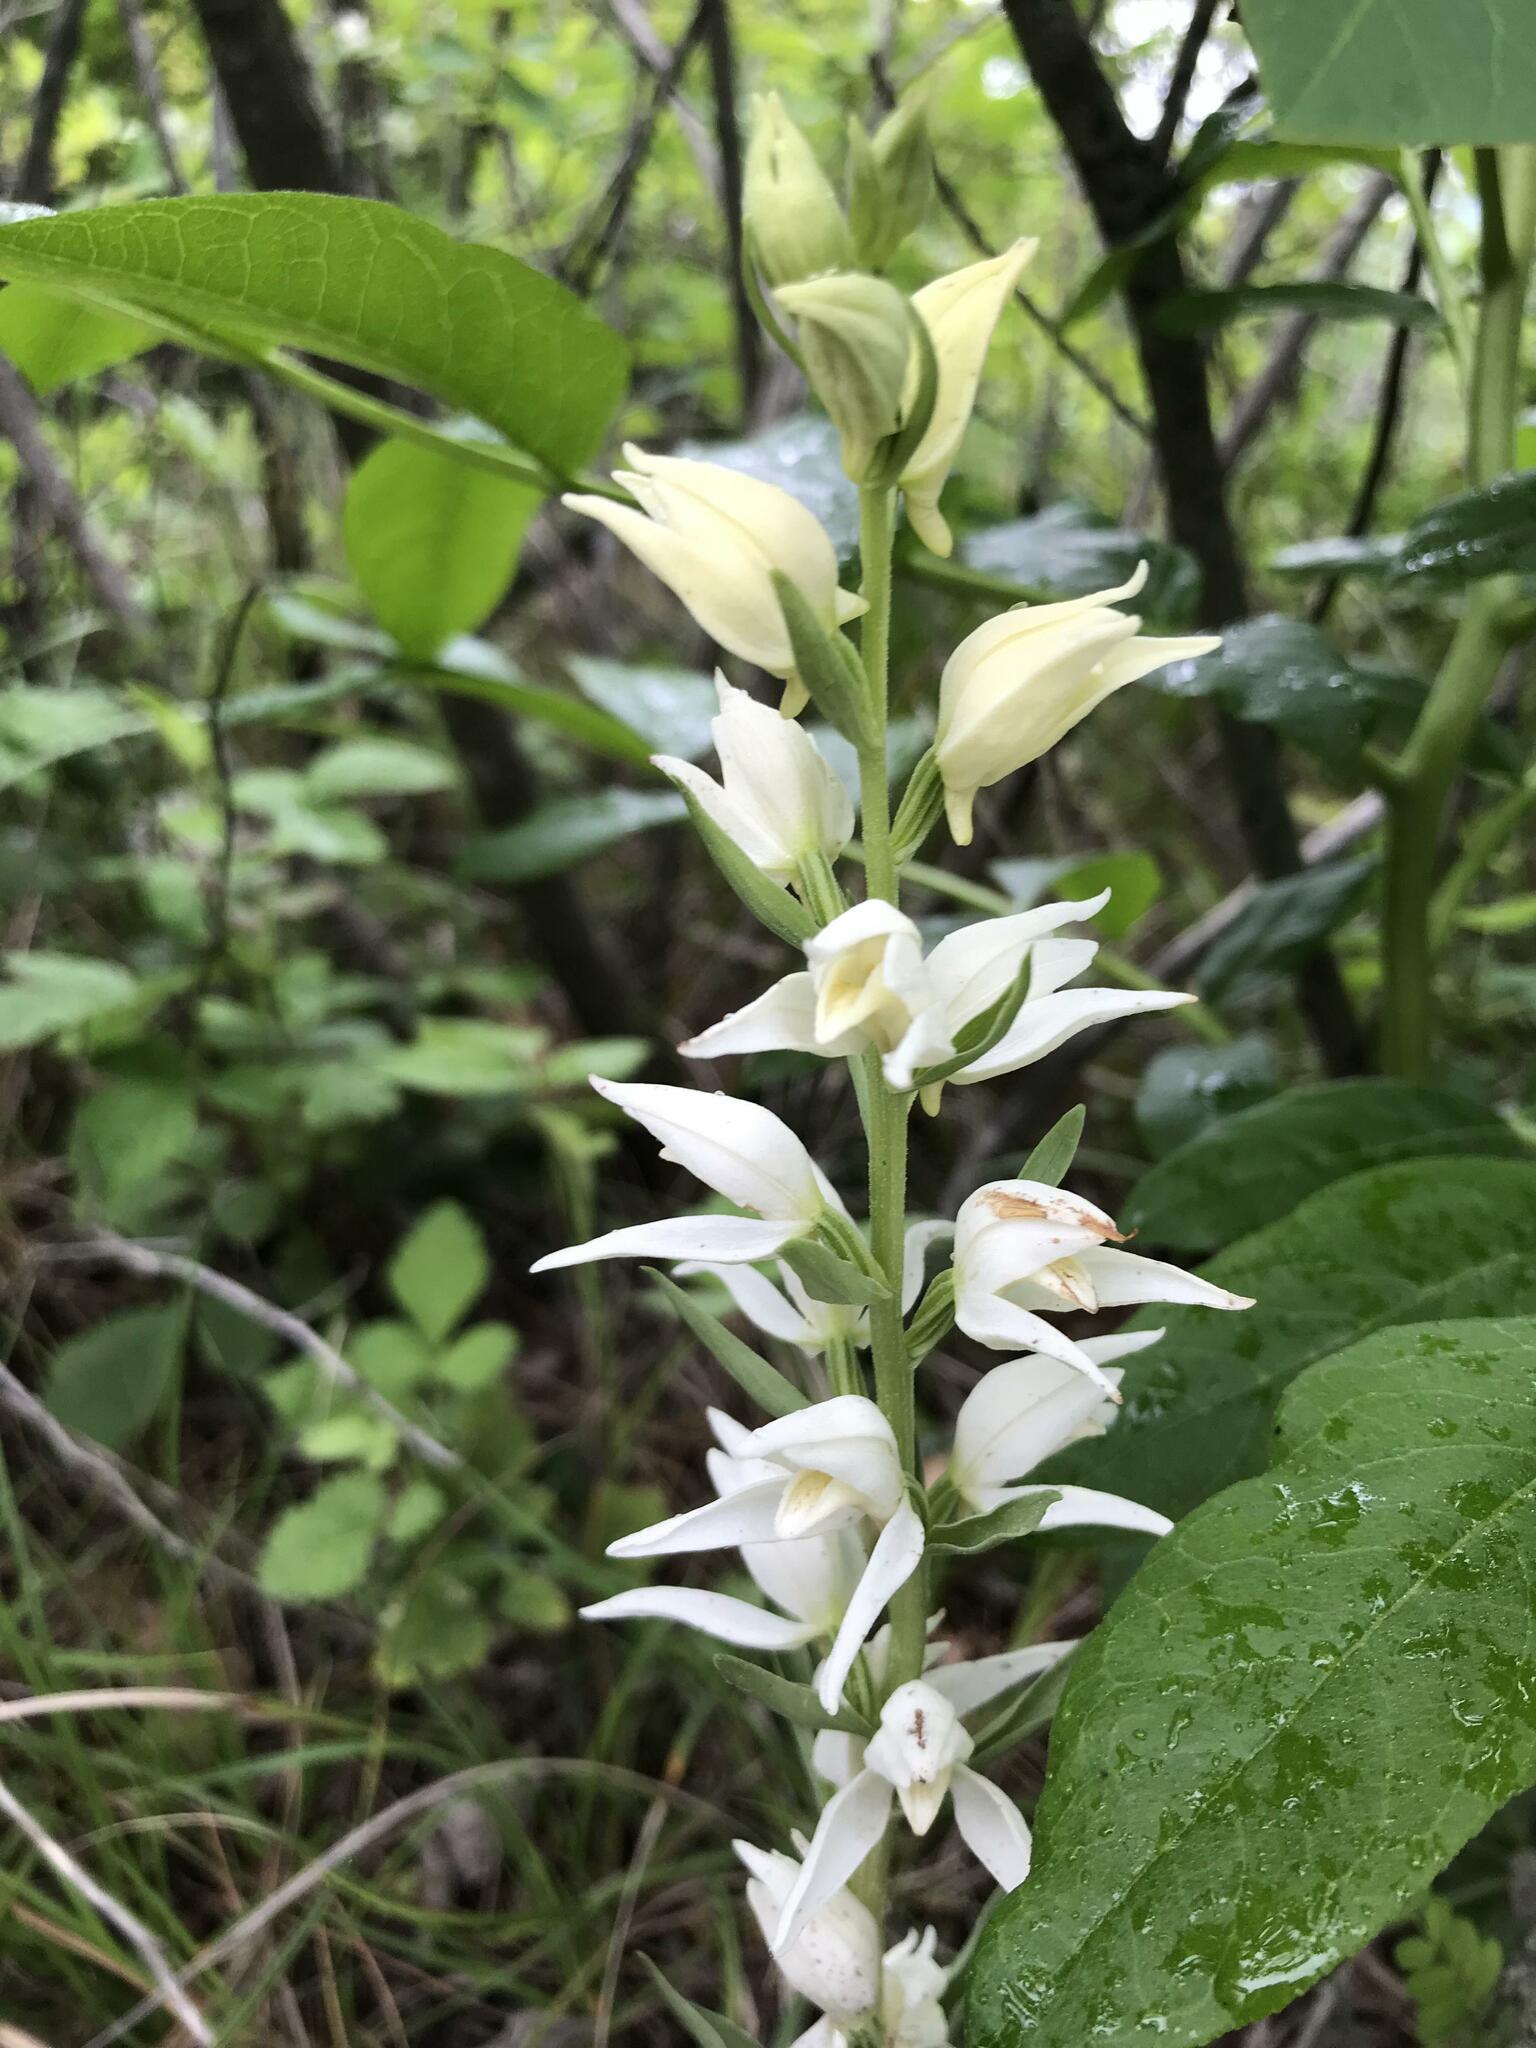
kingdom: Plantae
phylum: Tracheophyta
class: Liliopsida
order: Asparagales
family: Orchidaceae
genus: Cephalanthera
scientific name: Cephalanthera epipactoides
